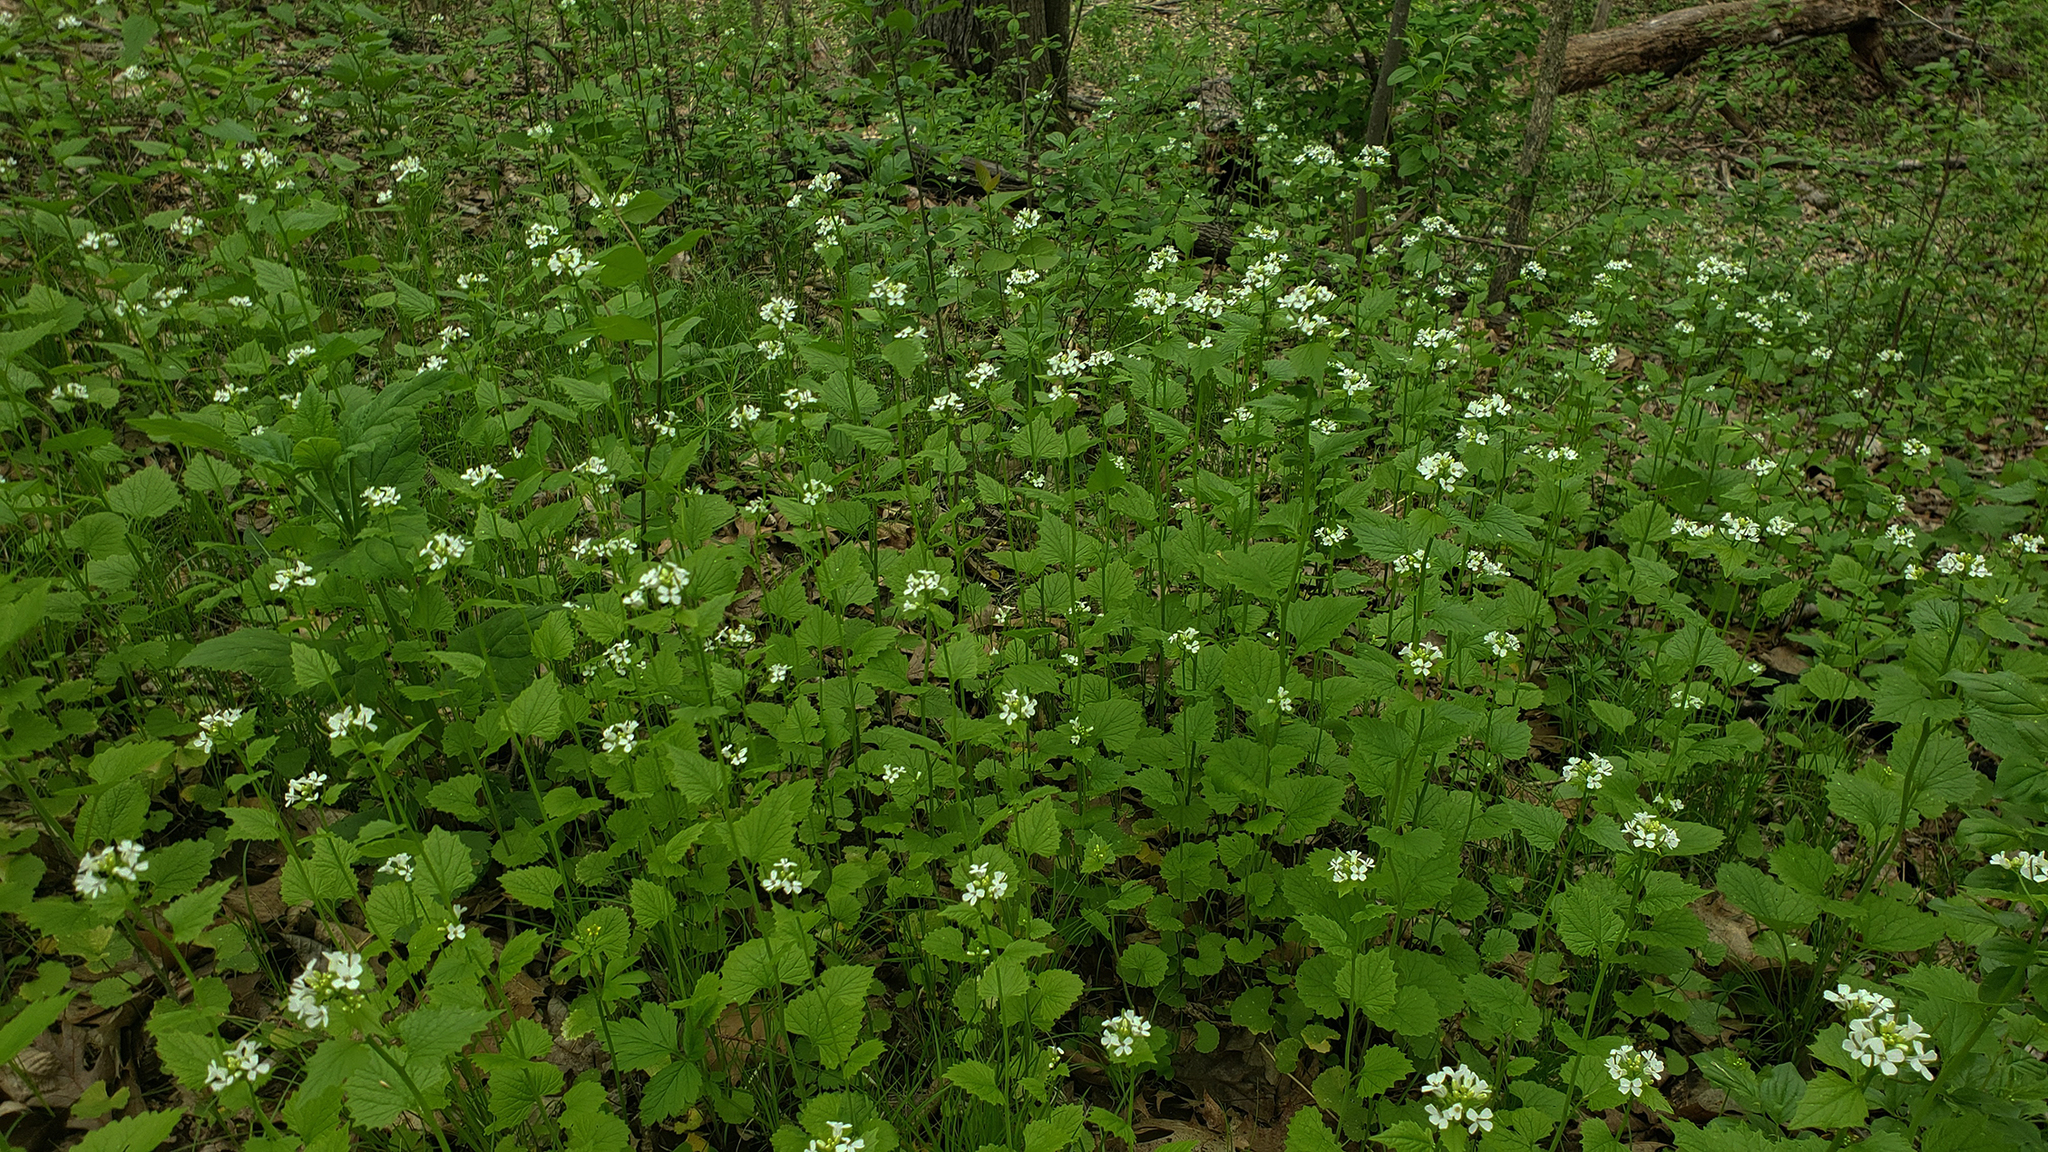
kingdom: Plantae
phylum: Tracheophyta
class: Magnoliopsida
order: Brassicales
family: Brassicaceae
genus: Alliaria
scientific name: Alliaria petiolata
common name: Garlic mustard
